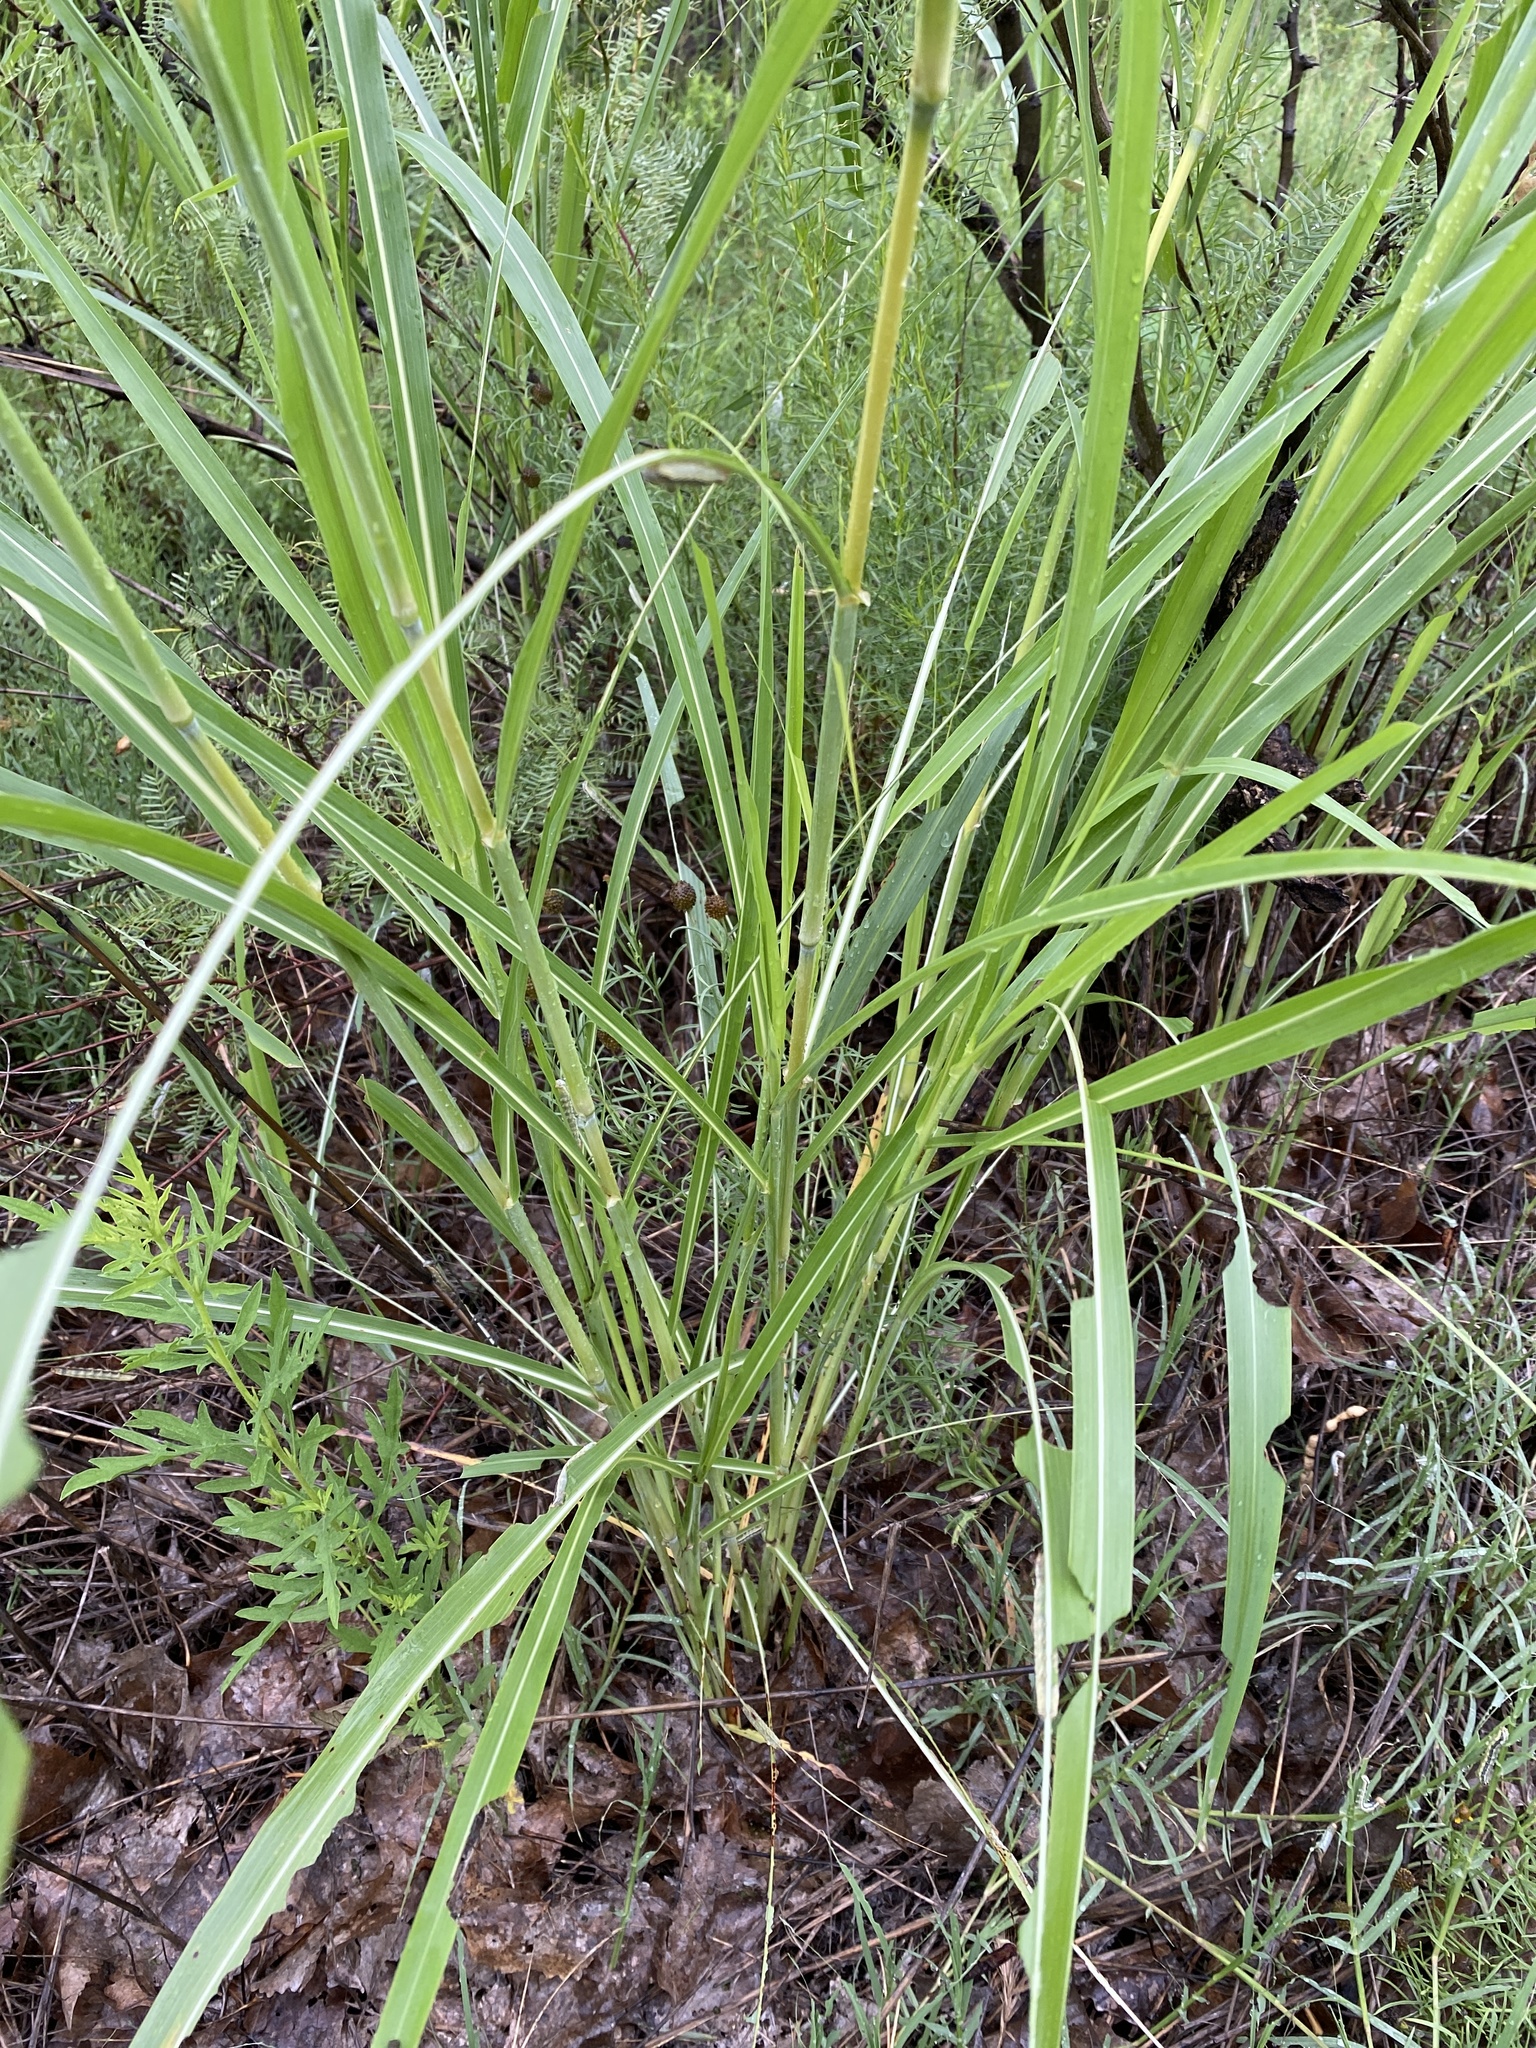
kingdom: Plantae
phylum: Tracheophyta
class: Liliopsida
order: Poales
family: Poaceae
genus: Sorghum
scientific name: Sorghum halepense
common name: Johnson-grass
